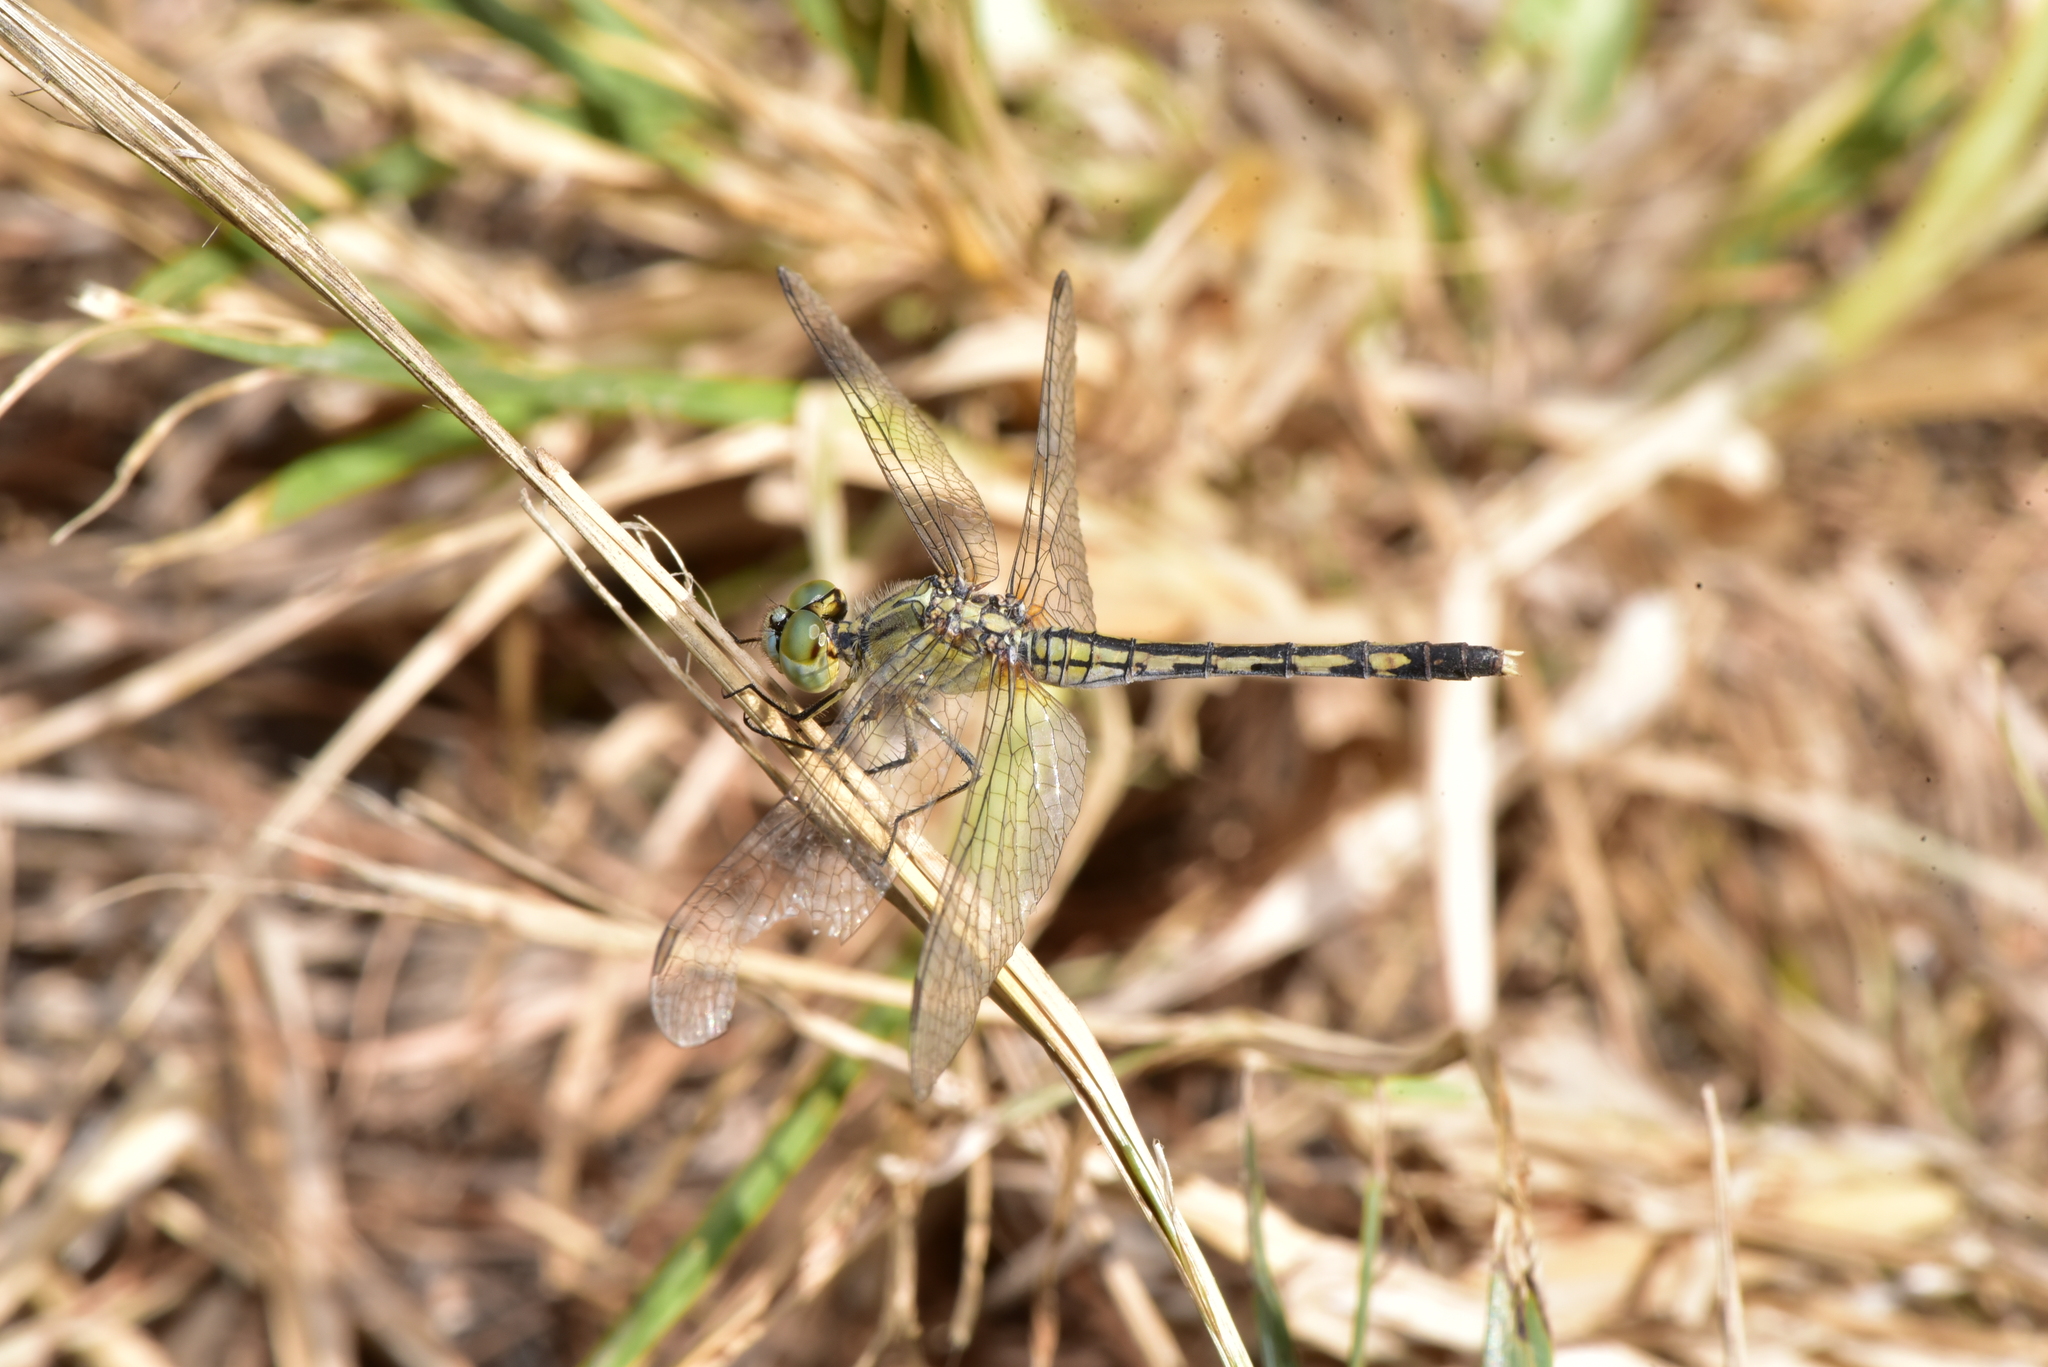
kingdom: Animalia
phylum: Arthropoda
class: Insecta
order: Odonata
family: Libellulidae
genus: Diplacodes
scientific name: Diplacodes trivialis
